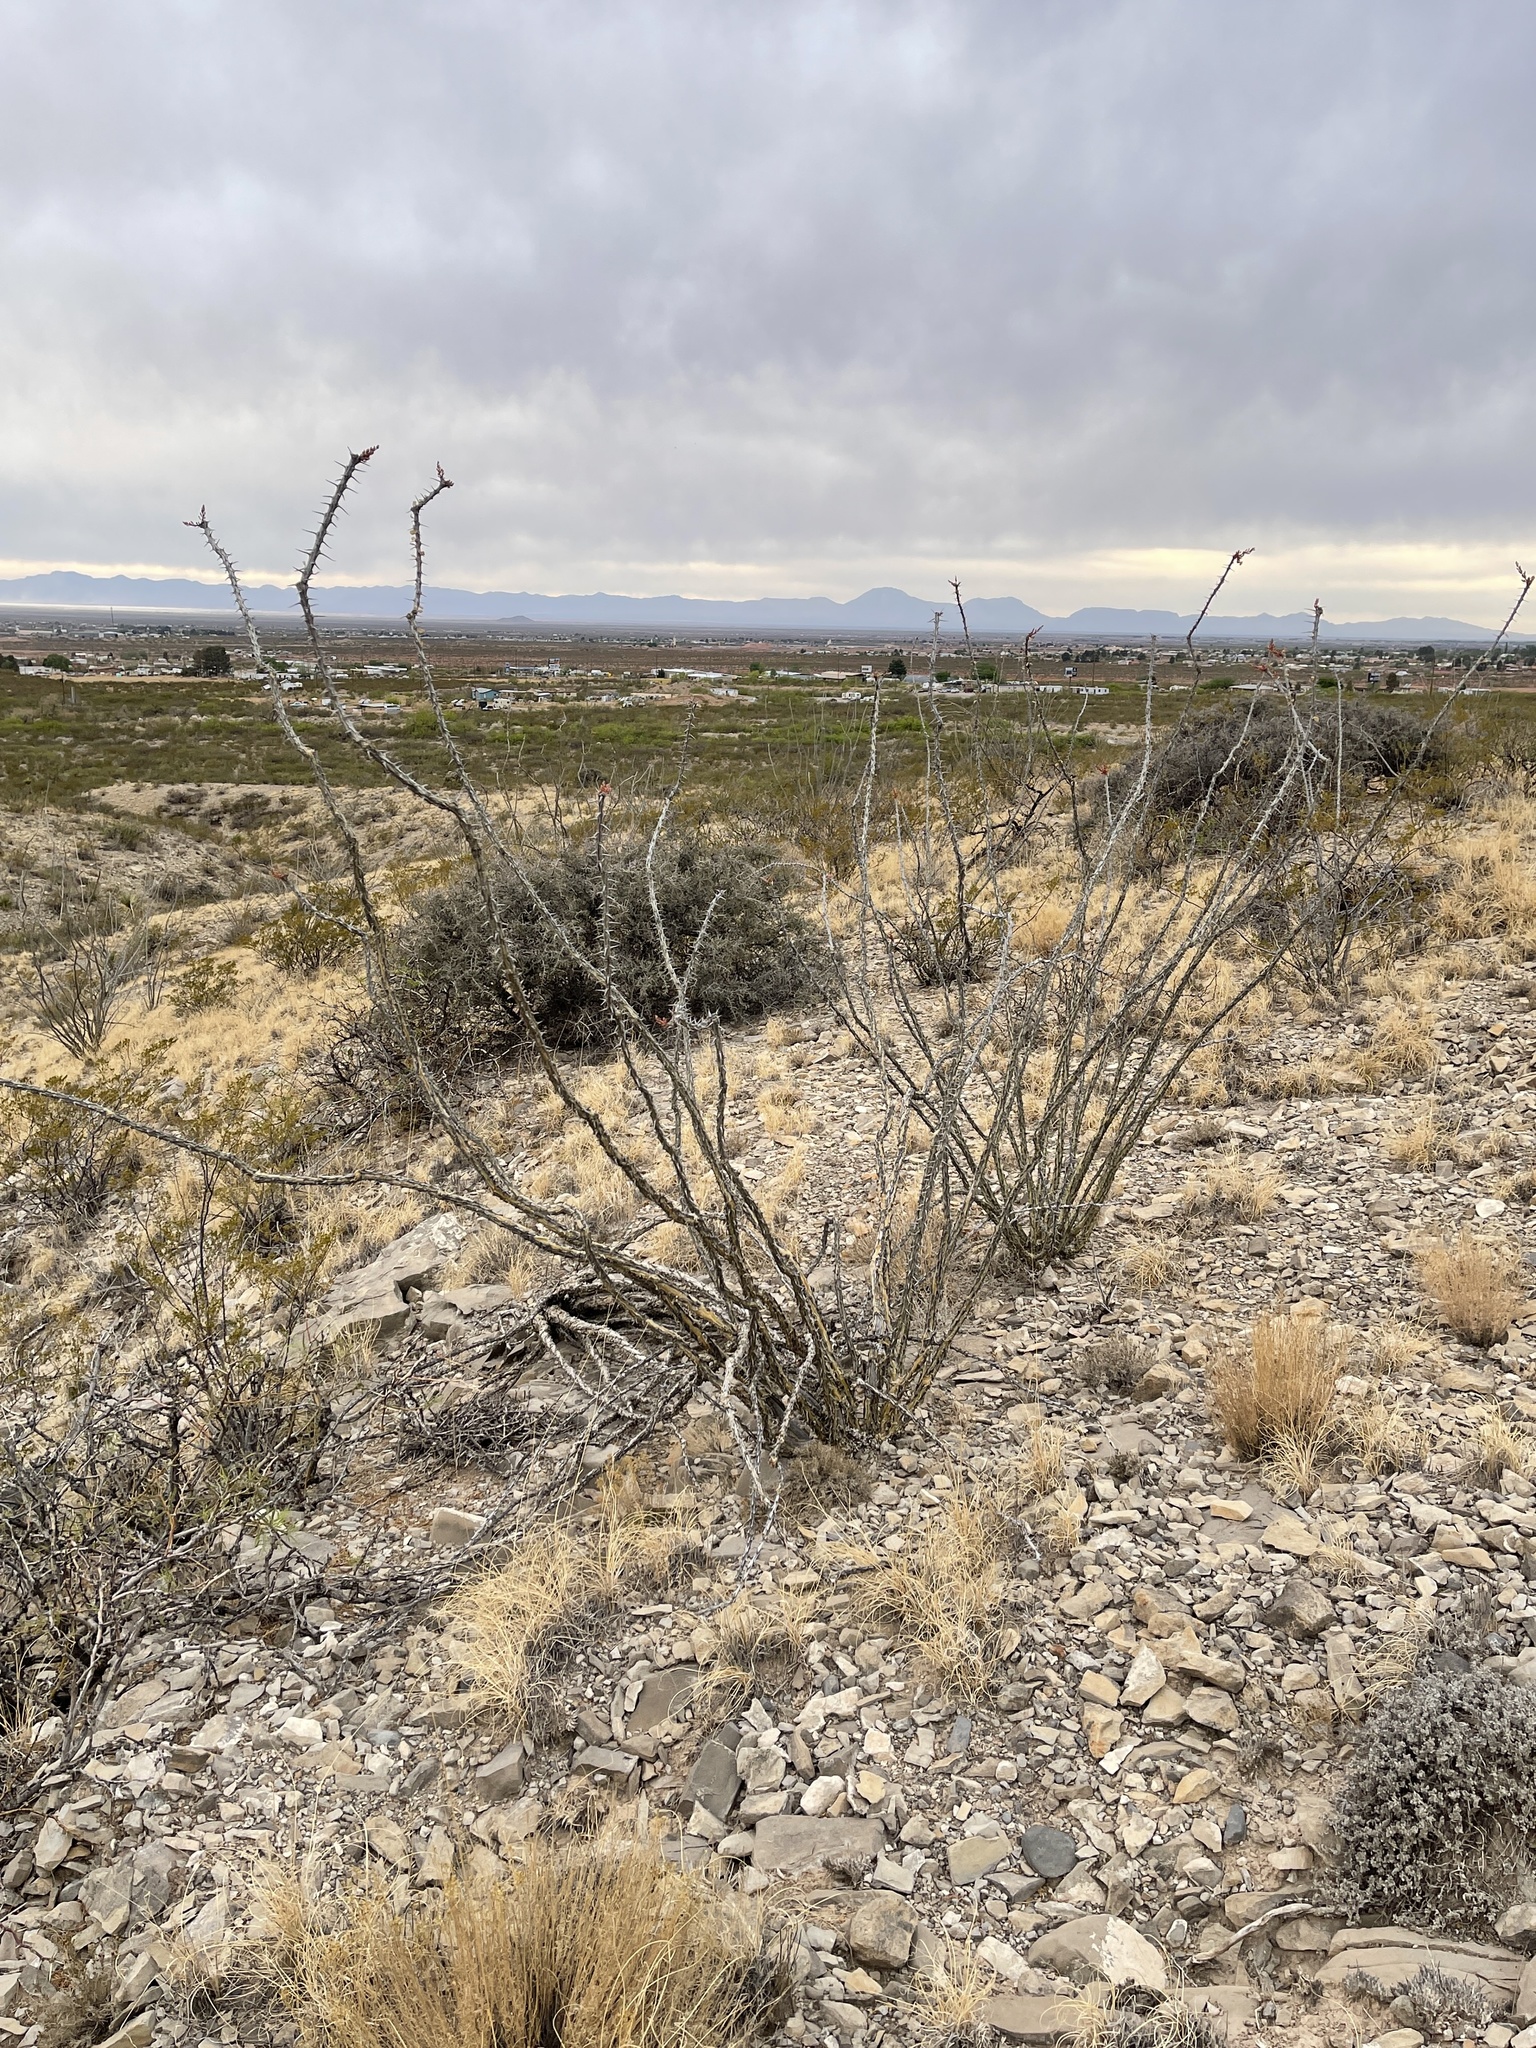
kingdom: Plantae
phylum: Tracheophyta
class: Magnoliopsida
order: Ericales
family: Fouquieriaceae
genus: Fouquieria
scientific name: Fouquieria splendens
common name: Vine-cactus
